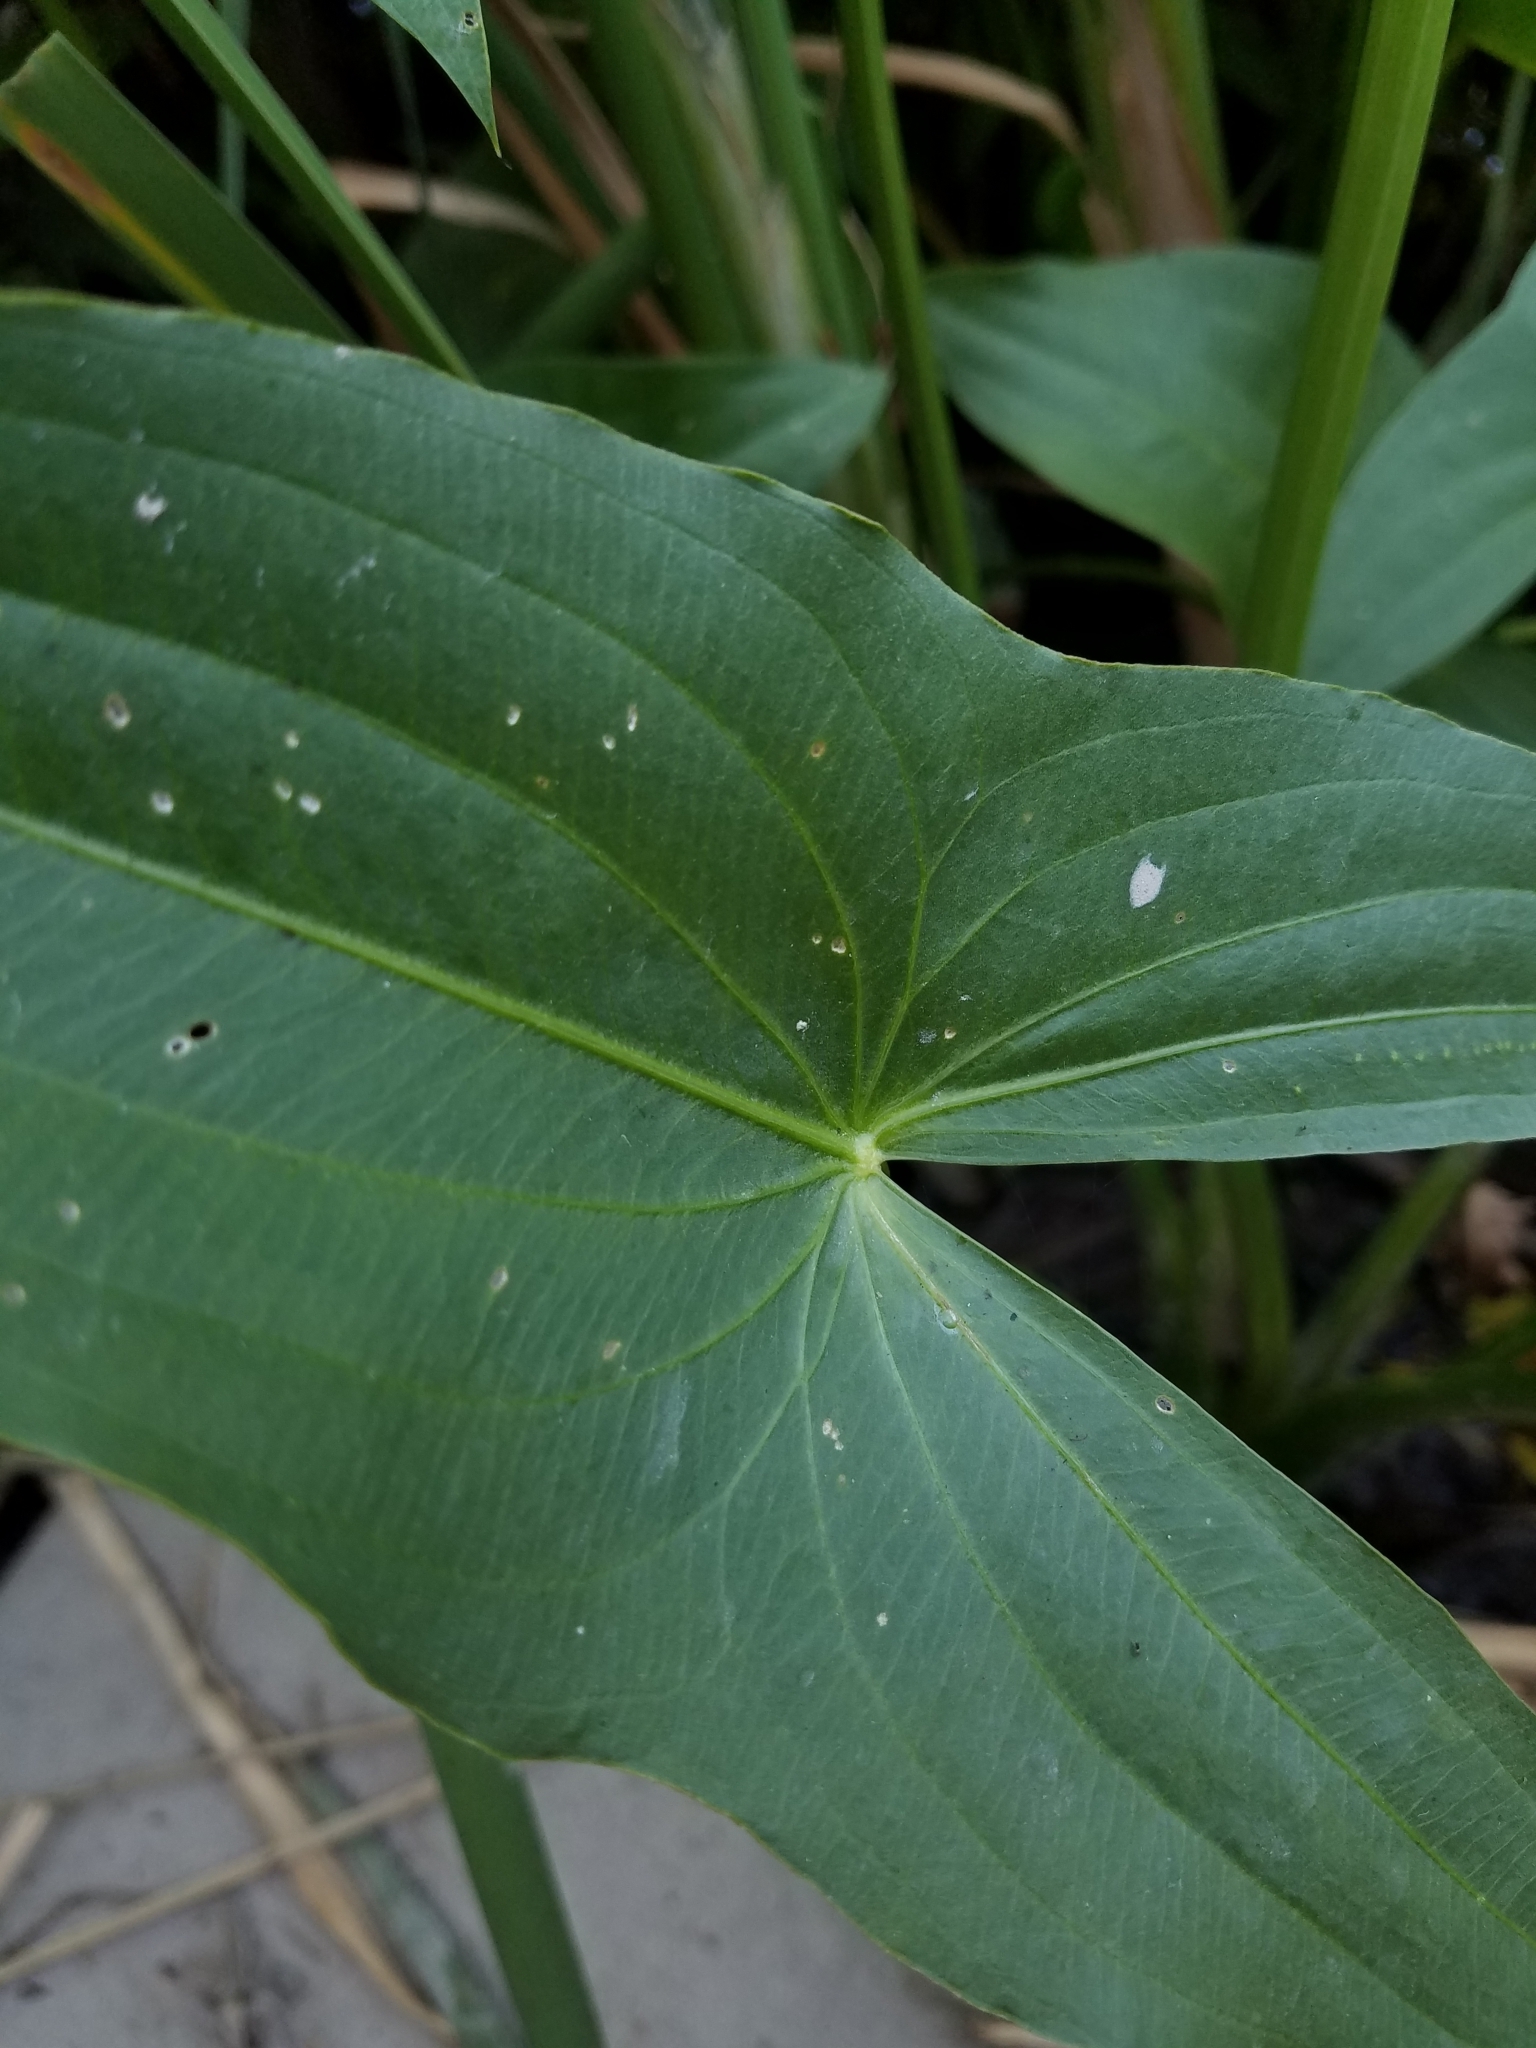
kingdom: Plantae
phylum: Tracheophyta
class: Liliopsida
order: Alismatales
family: Alismataceae
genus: Sagittaria
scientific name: Sagittaria latifolia
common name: Duck-potato
